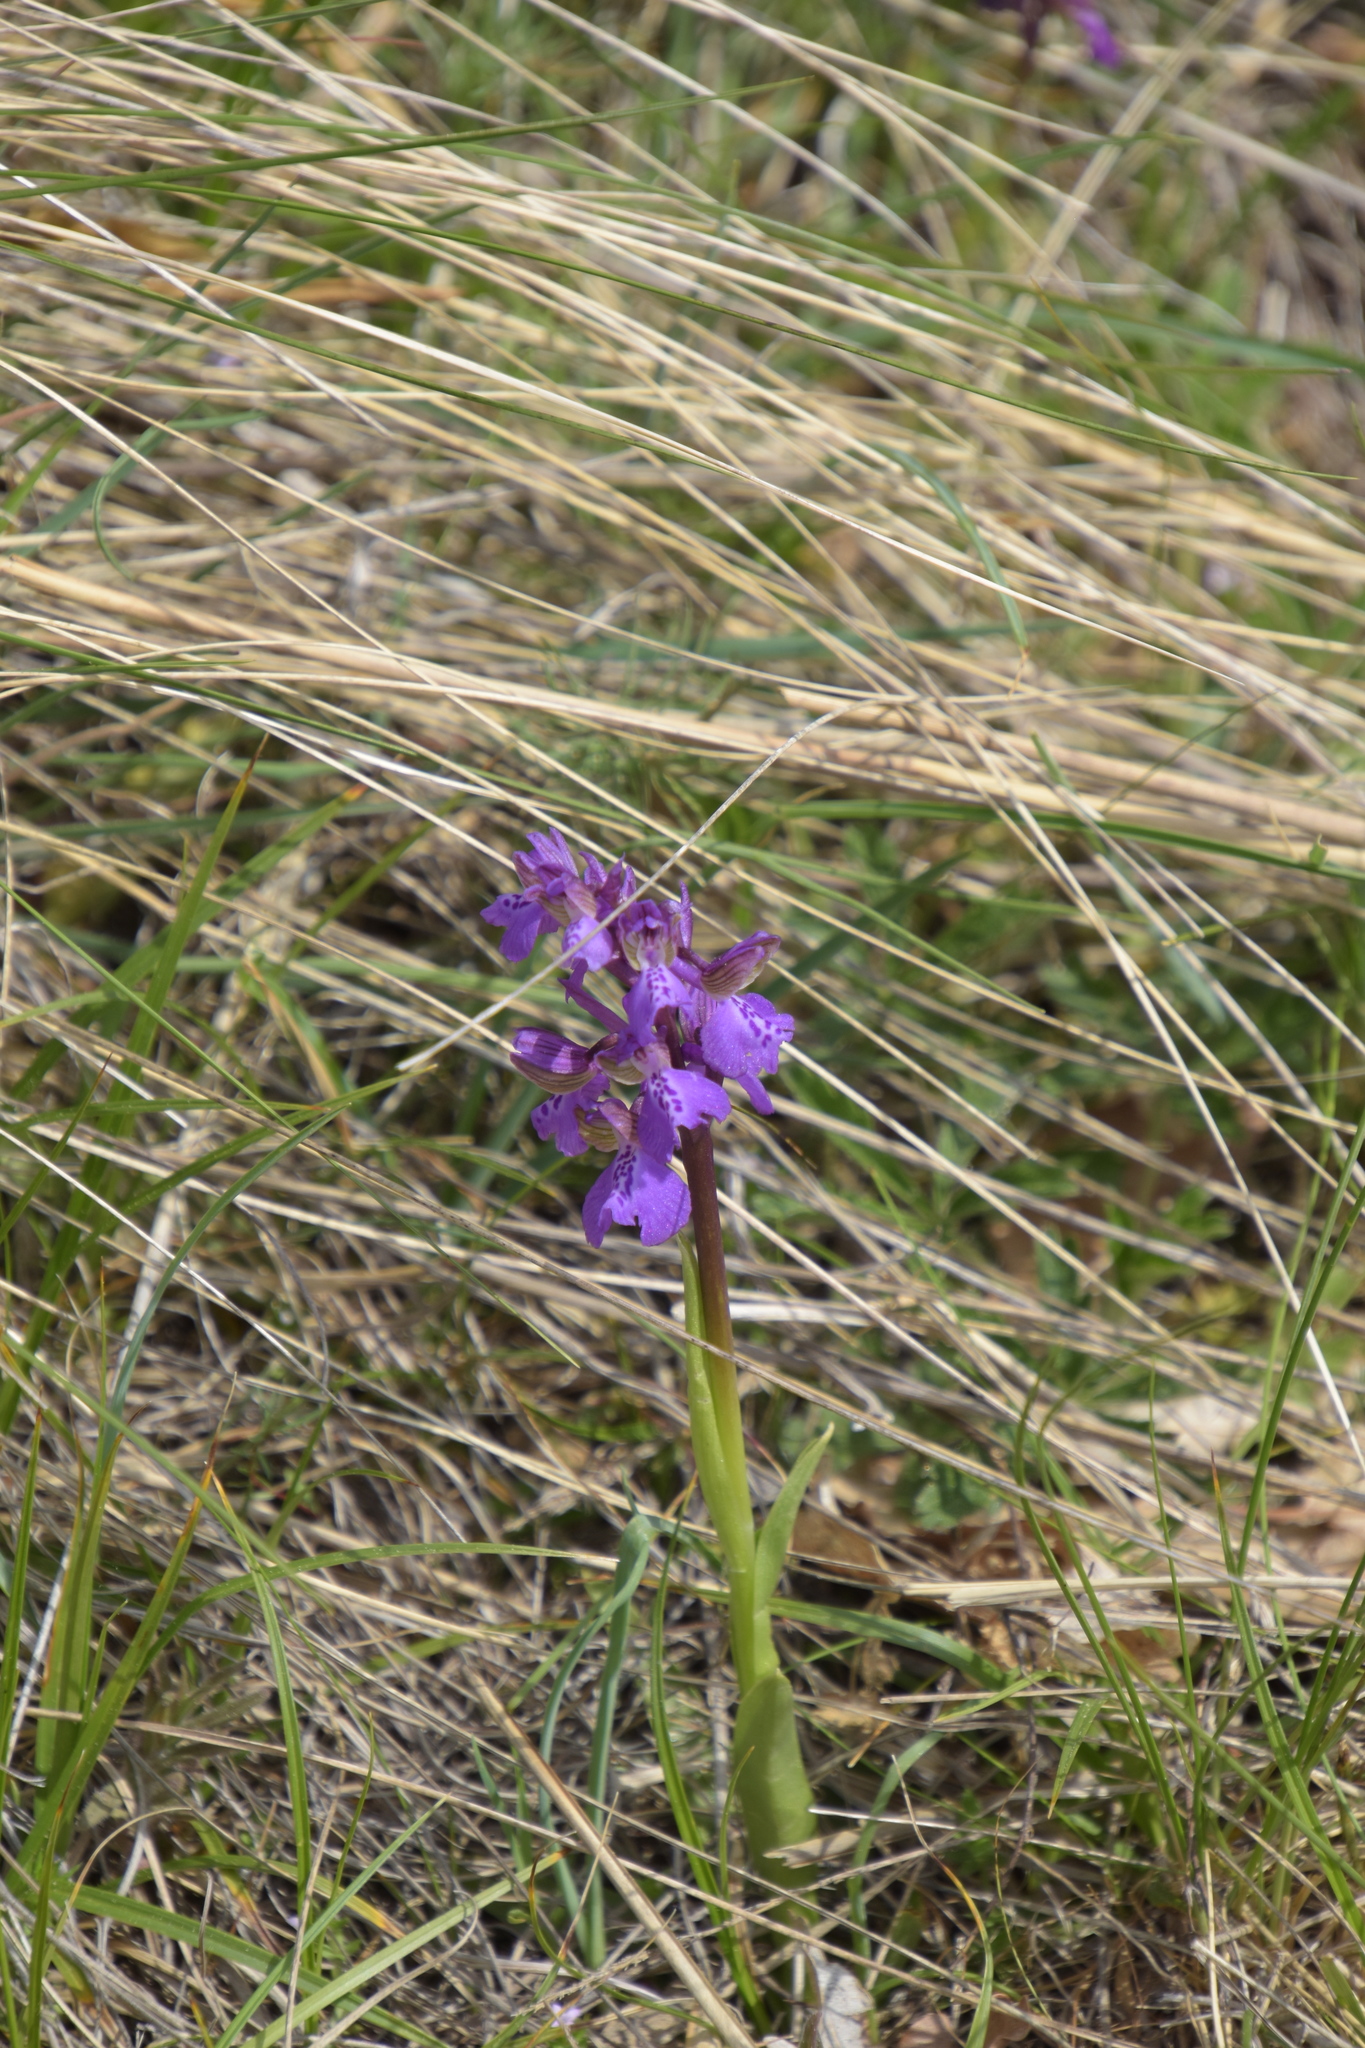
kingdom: Plantae
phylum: Tracheophyta
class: Liliopsida
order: Asparagales
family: Orchidaceae
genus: Anacamptis
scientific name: Anacamptis morio
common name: Green-winged orchid
